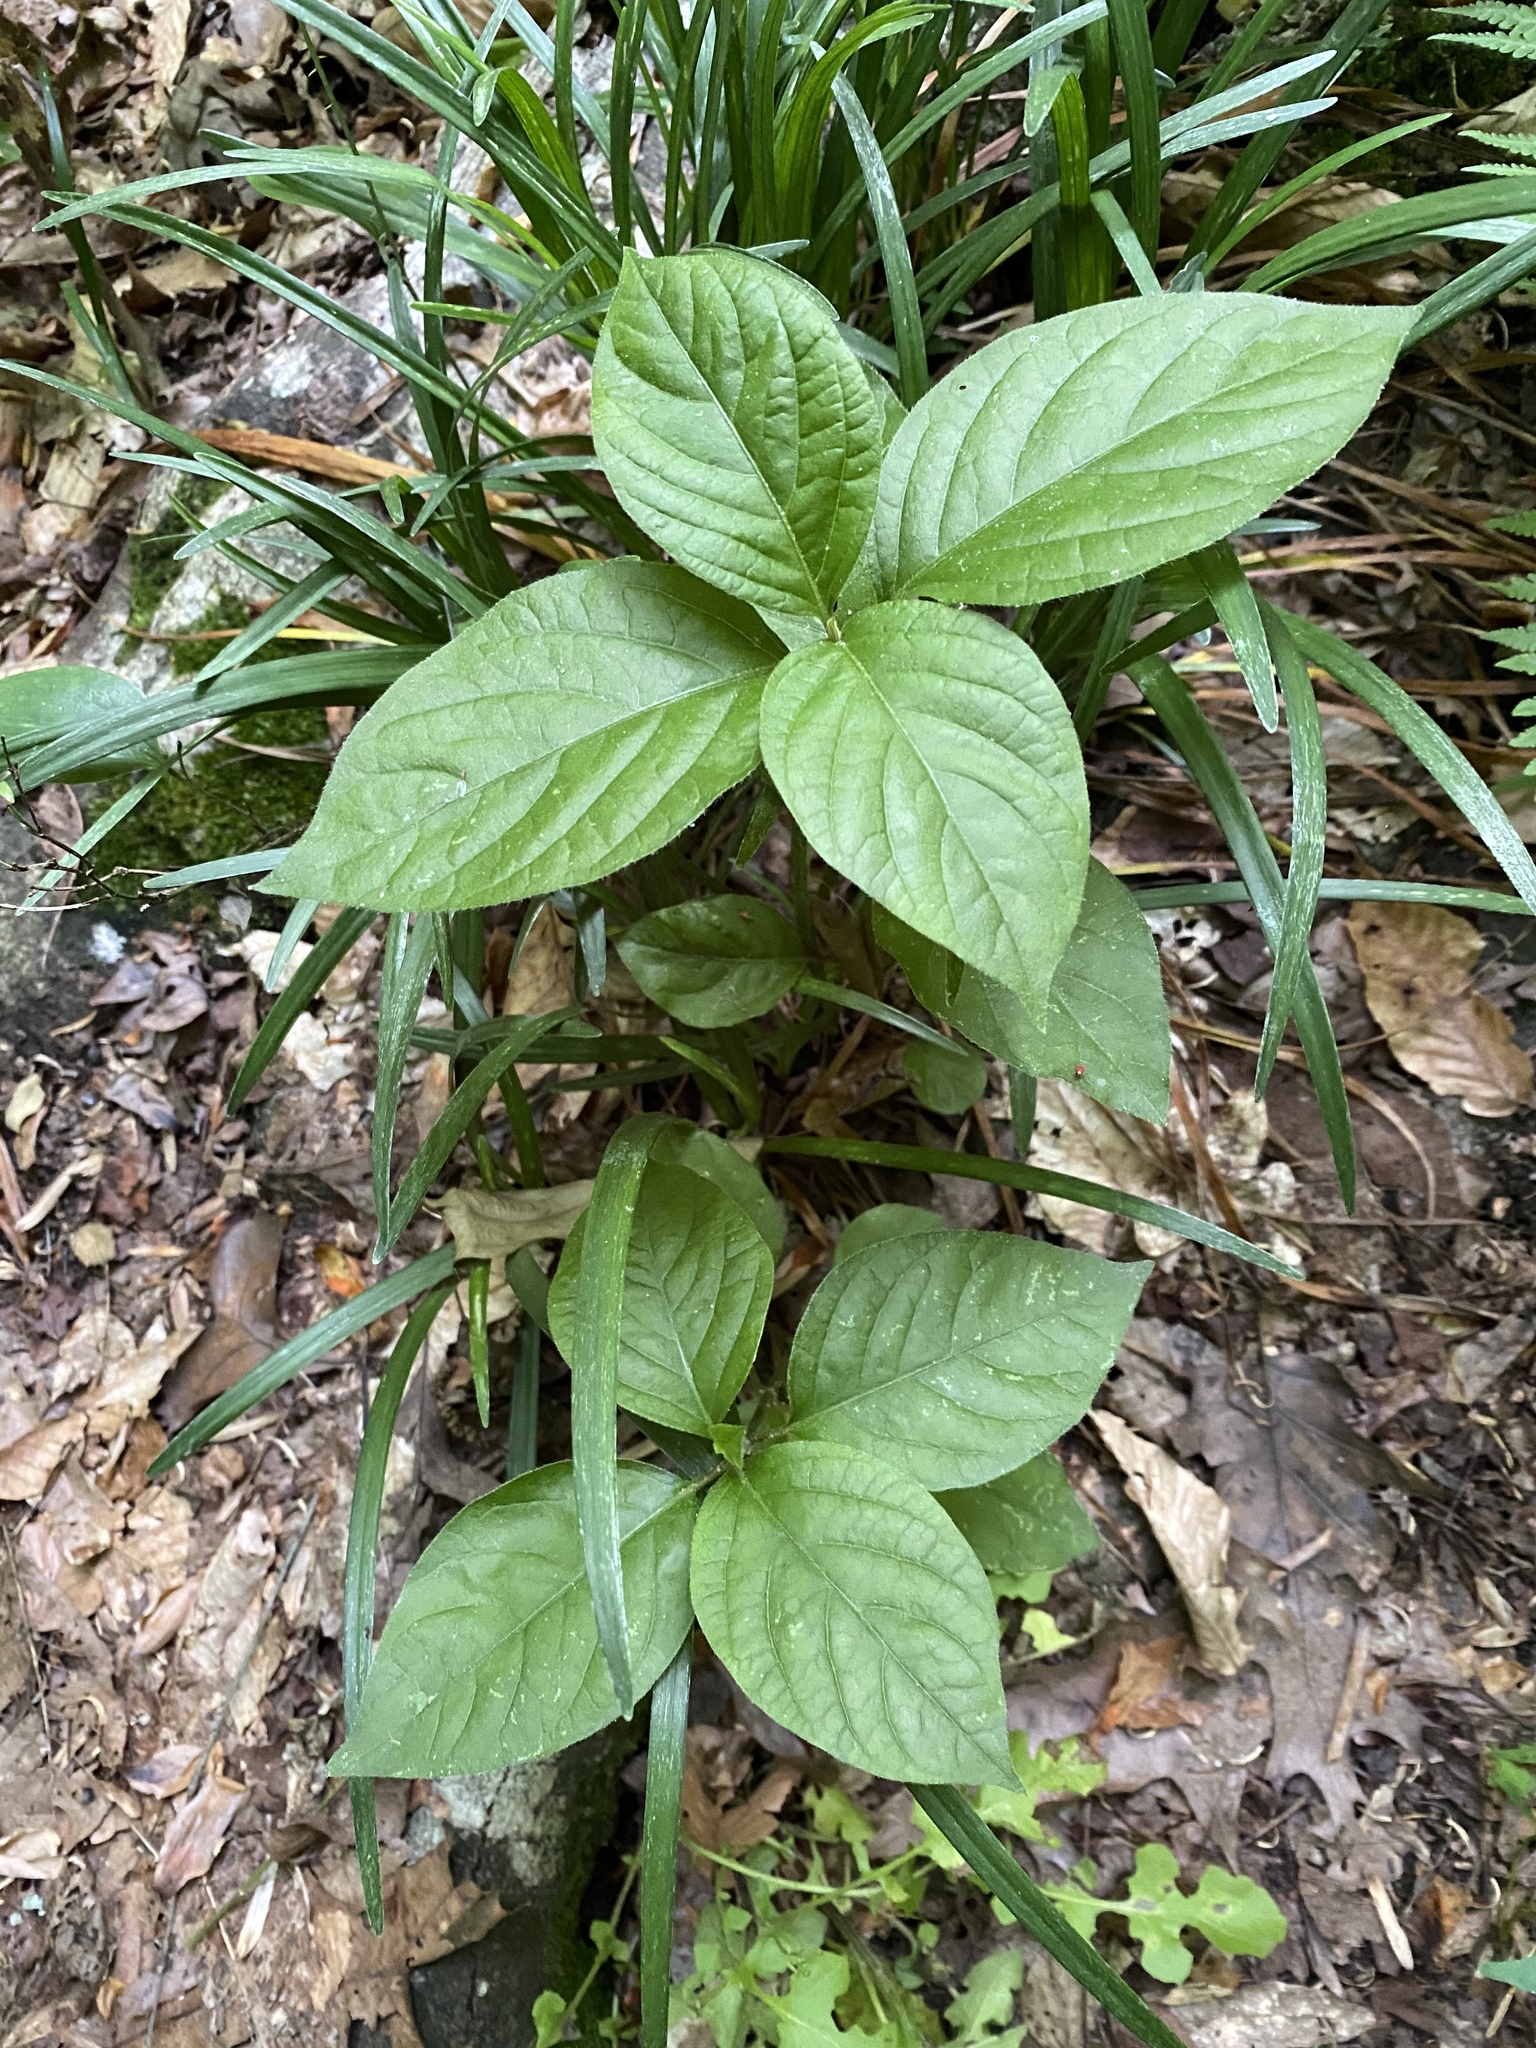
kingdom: Plantae
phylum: Tracheophyta
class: Magnoliopsida
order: Caryophyllales
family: Amaranthaceae
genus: Achyranthes
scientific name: Achyranthes bidentata
